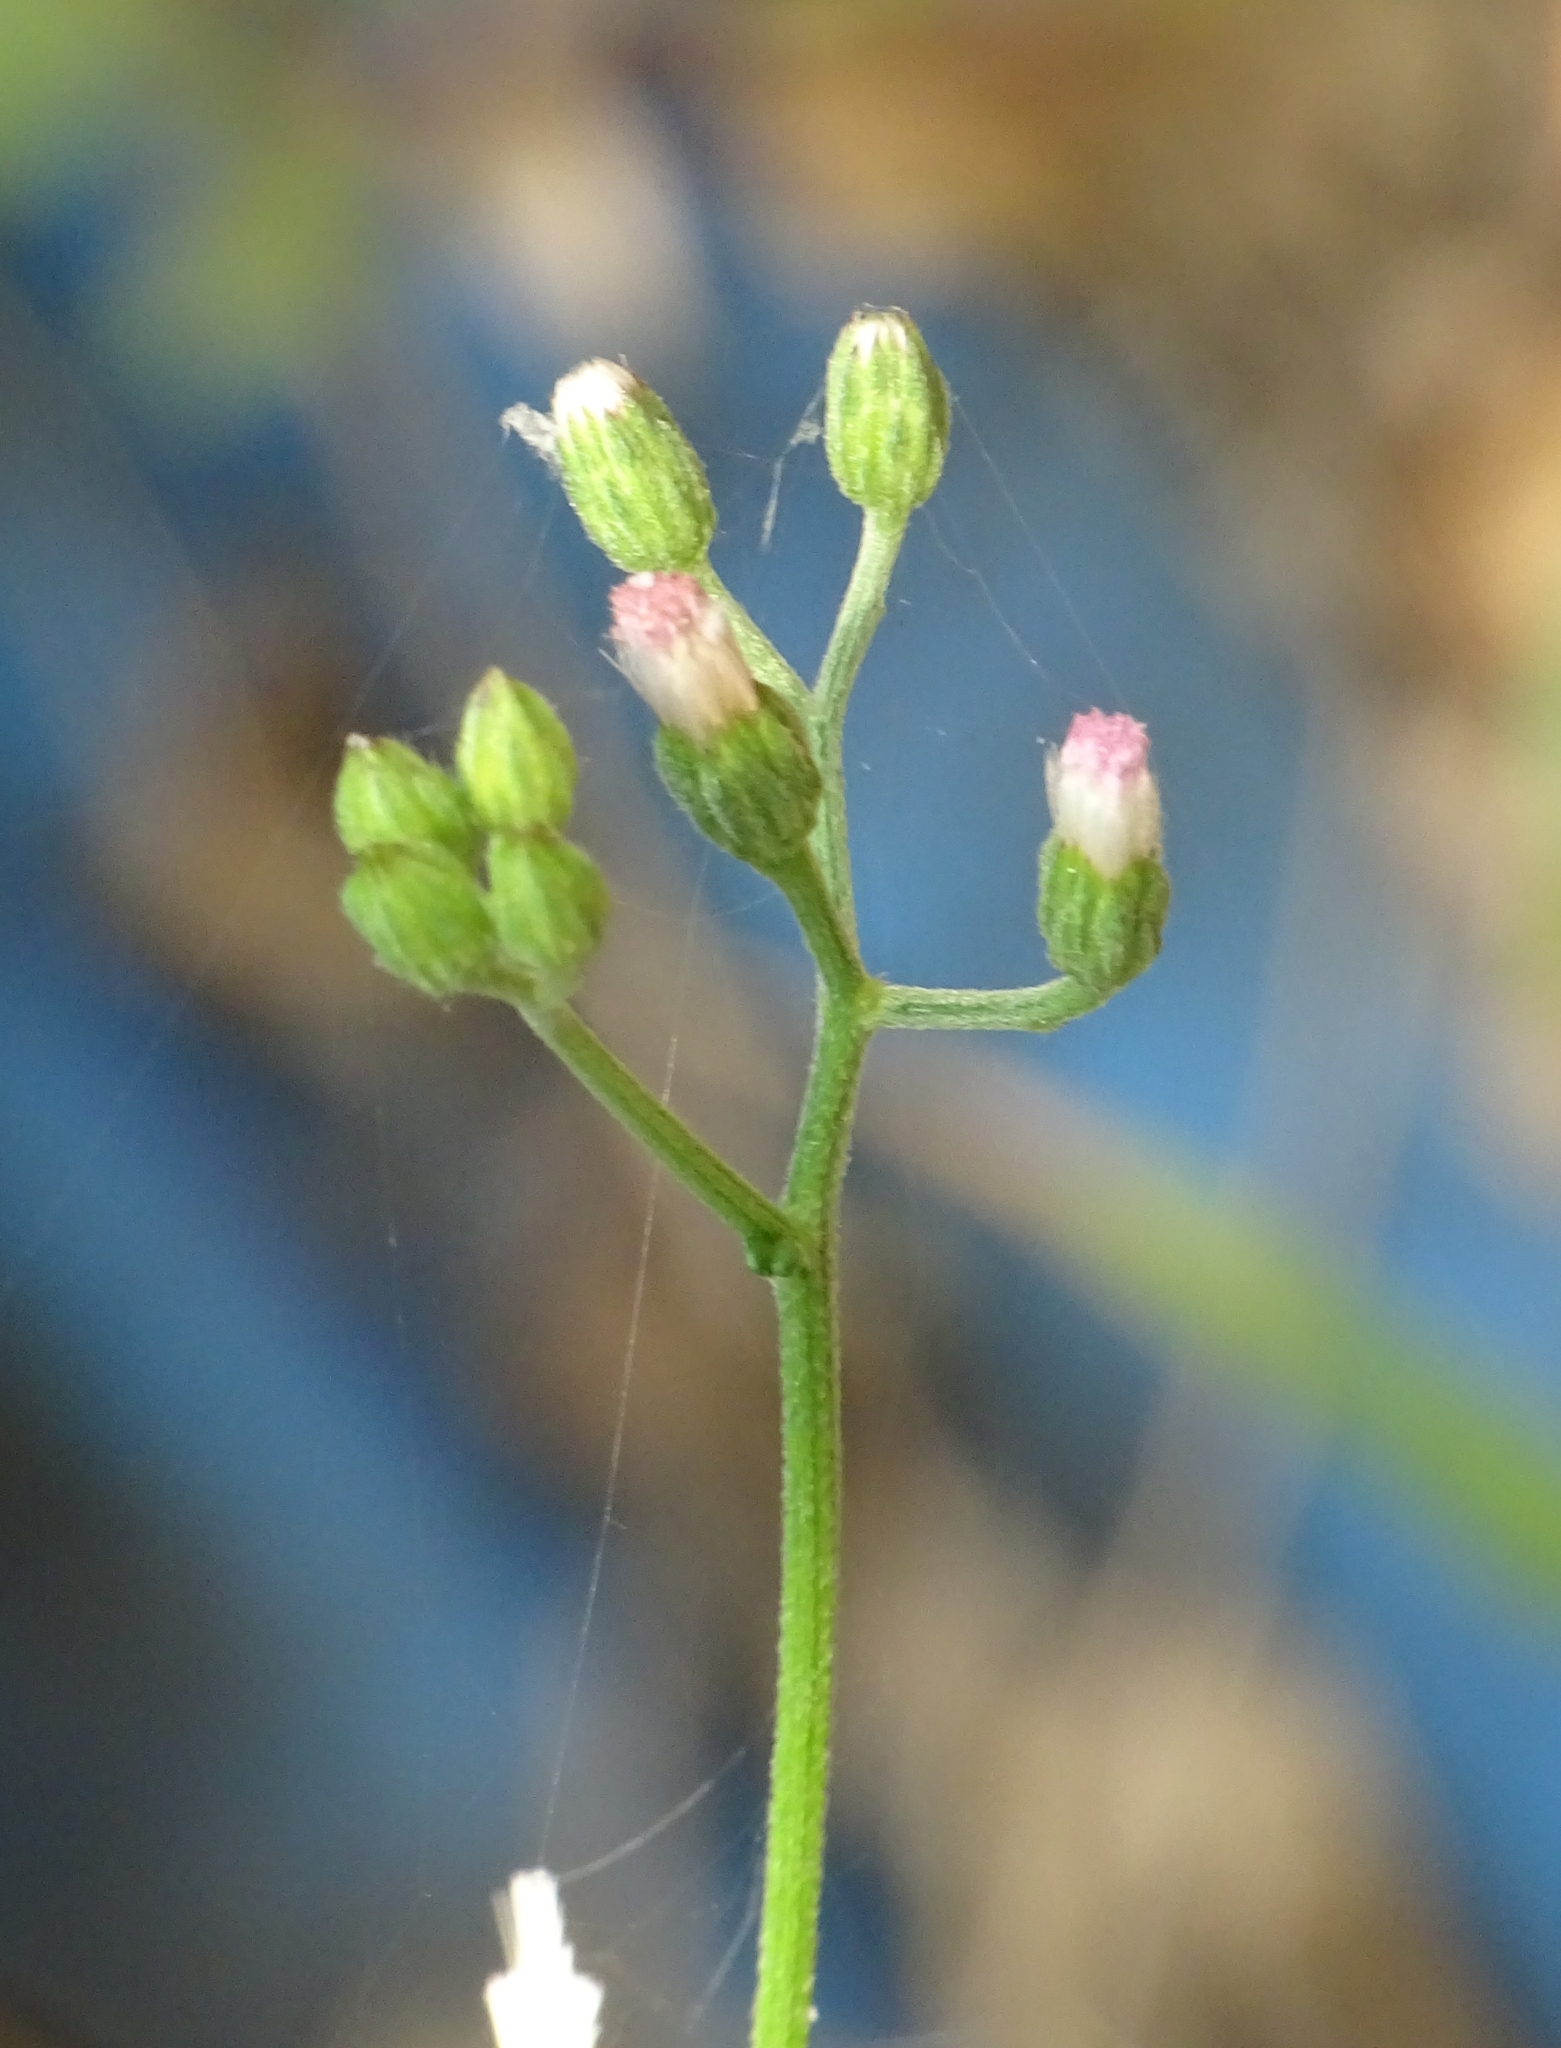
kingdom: Plantae
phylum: Tracheophyta
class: Magnoliopsida
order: Asterales
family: Asteraceae
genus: Cyanthillium
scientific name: Cyanthillium cinereum
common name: Little ironweed
